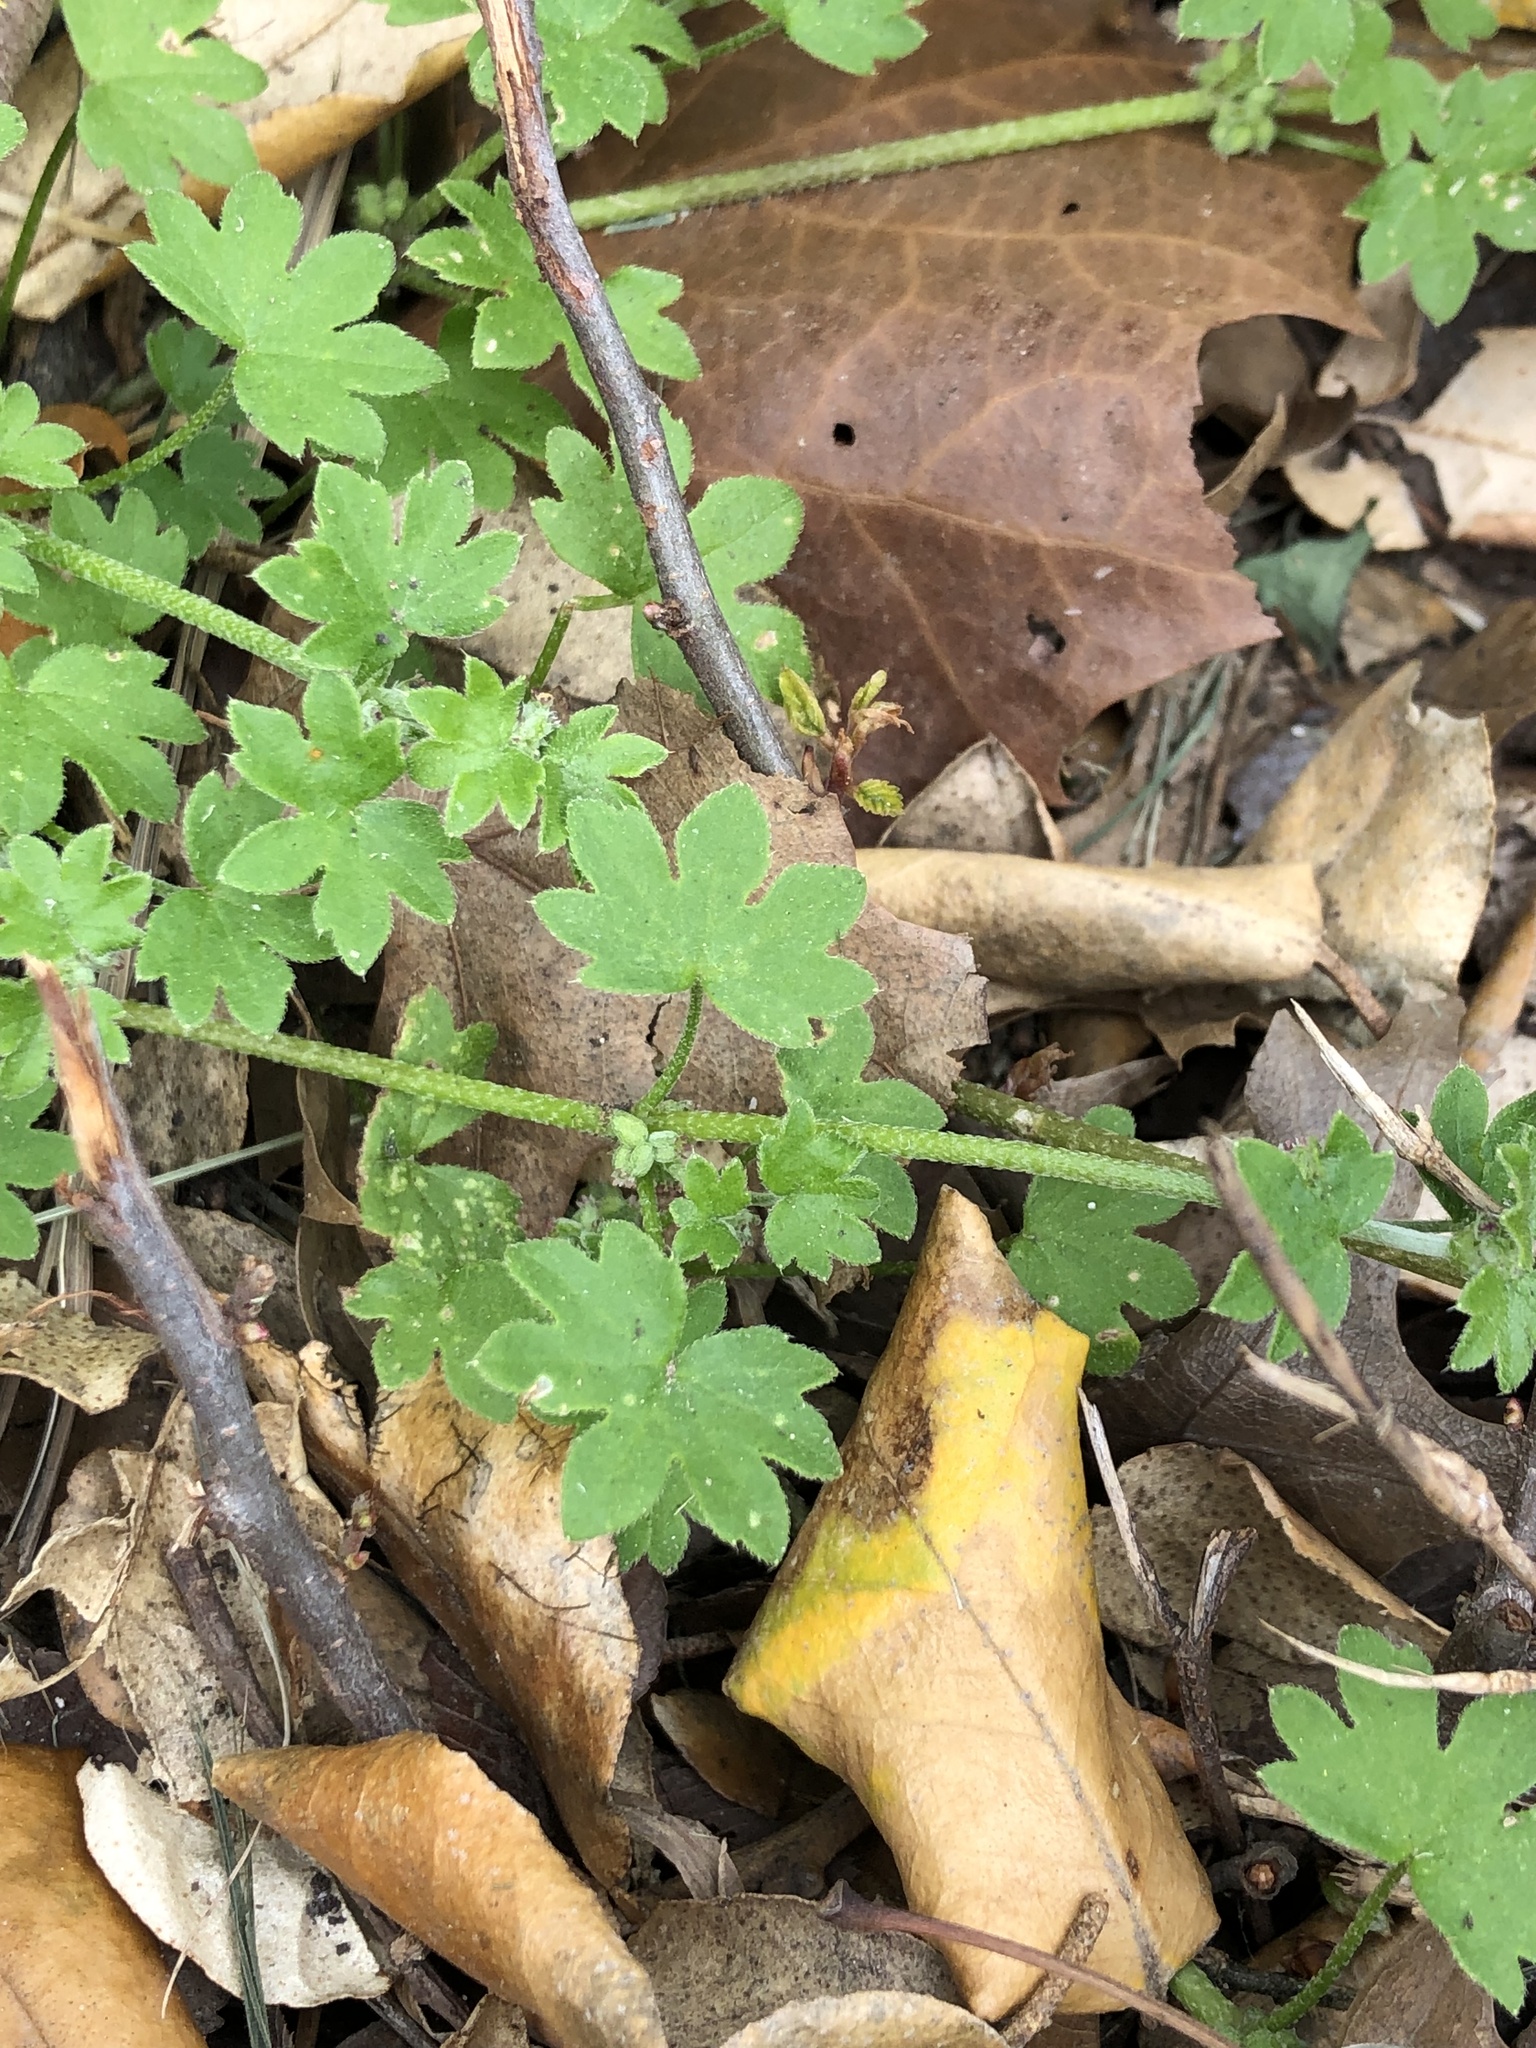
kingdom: Plantae
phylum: Tracheophyta
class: Magnoliopsida
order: Apiales
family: Apiaceae
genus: Bowlesia
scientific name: Bowlesia incana
